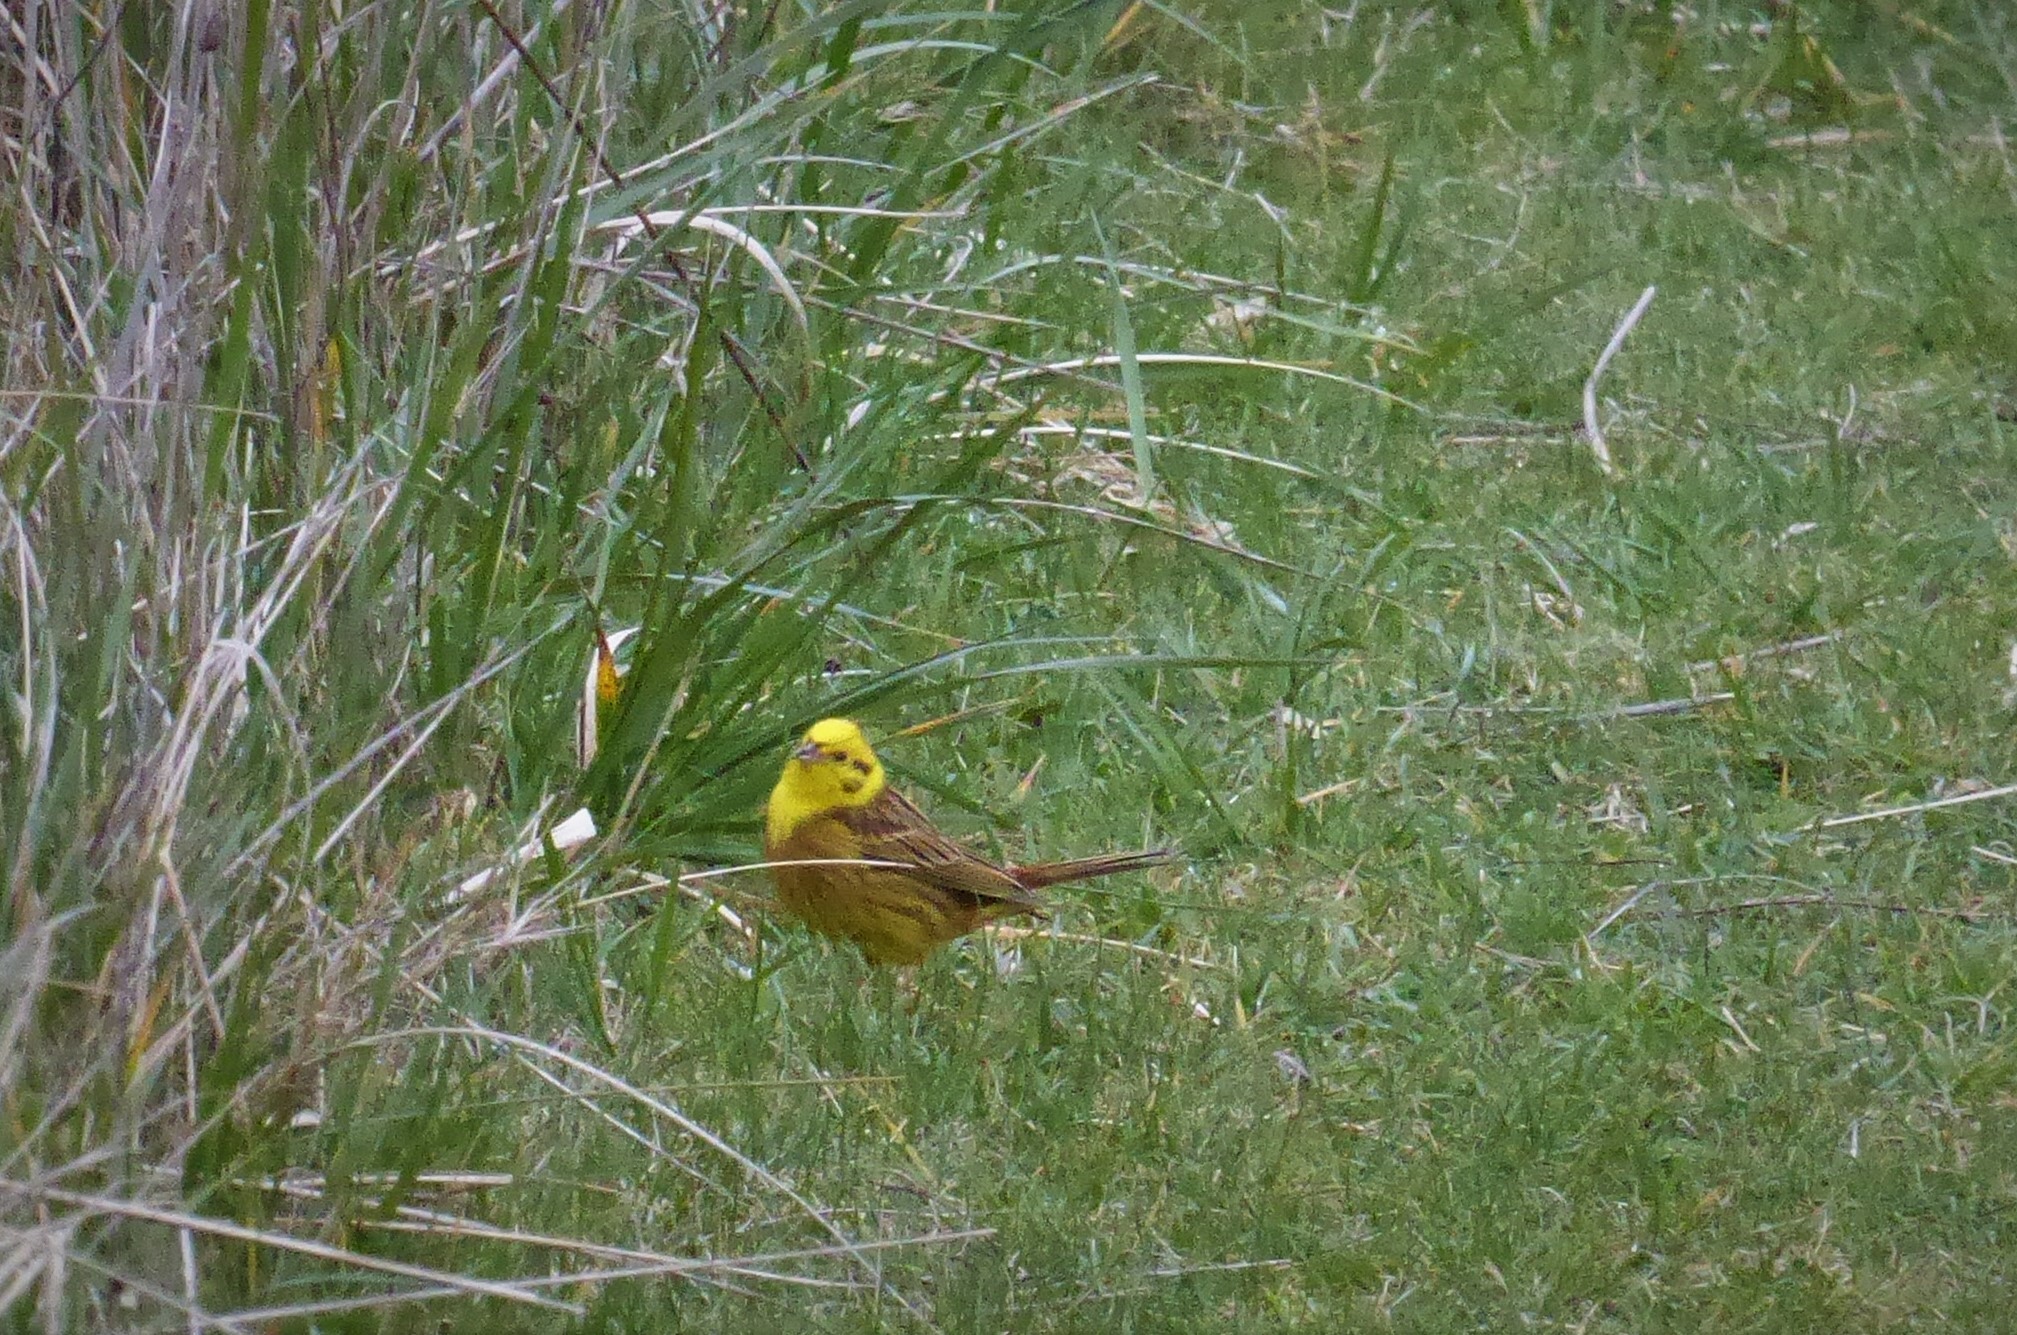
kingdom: Animalia
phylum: Chordata
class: Aves
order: Passeriformes
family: Emberizidae
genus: Emberiza
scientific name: Emberiza citrinella
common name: Yellowhammer
